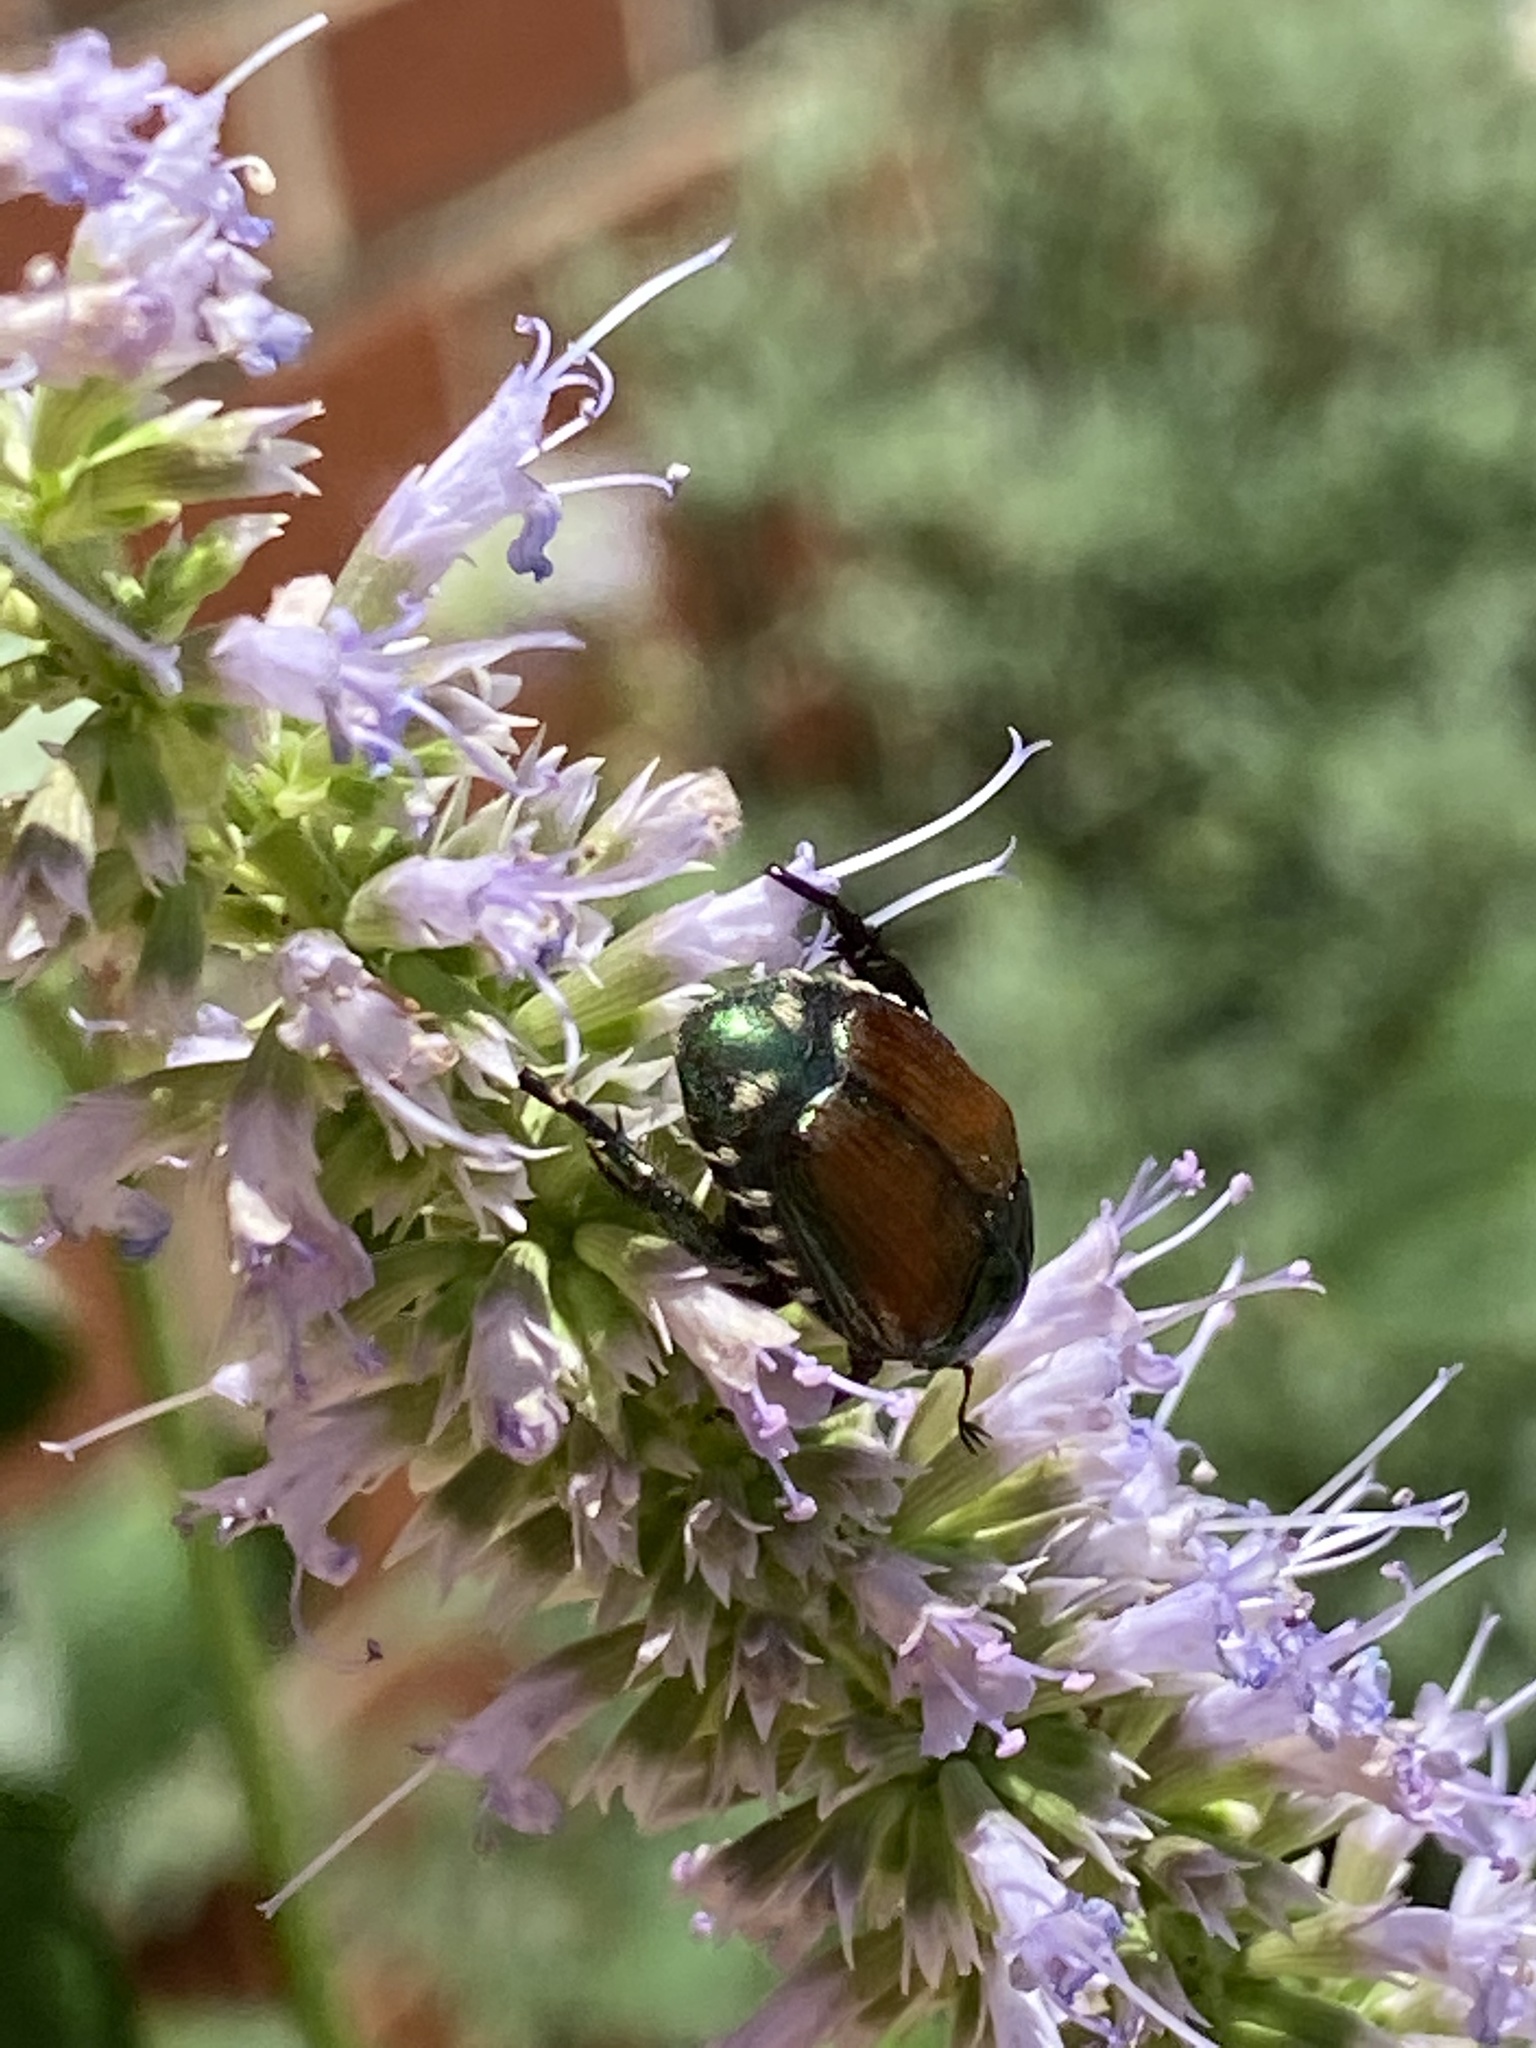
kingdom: Animalia
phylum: Arthropoda
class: Insecta
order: Coleoptera
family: Scarabaeidae
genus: Popillia
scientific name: Popillia japonica
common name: Japanese beetle
